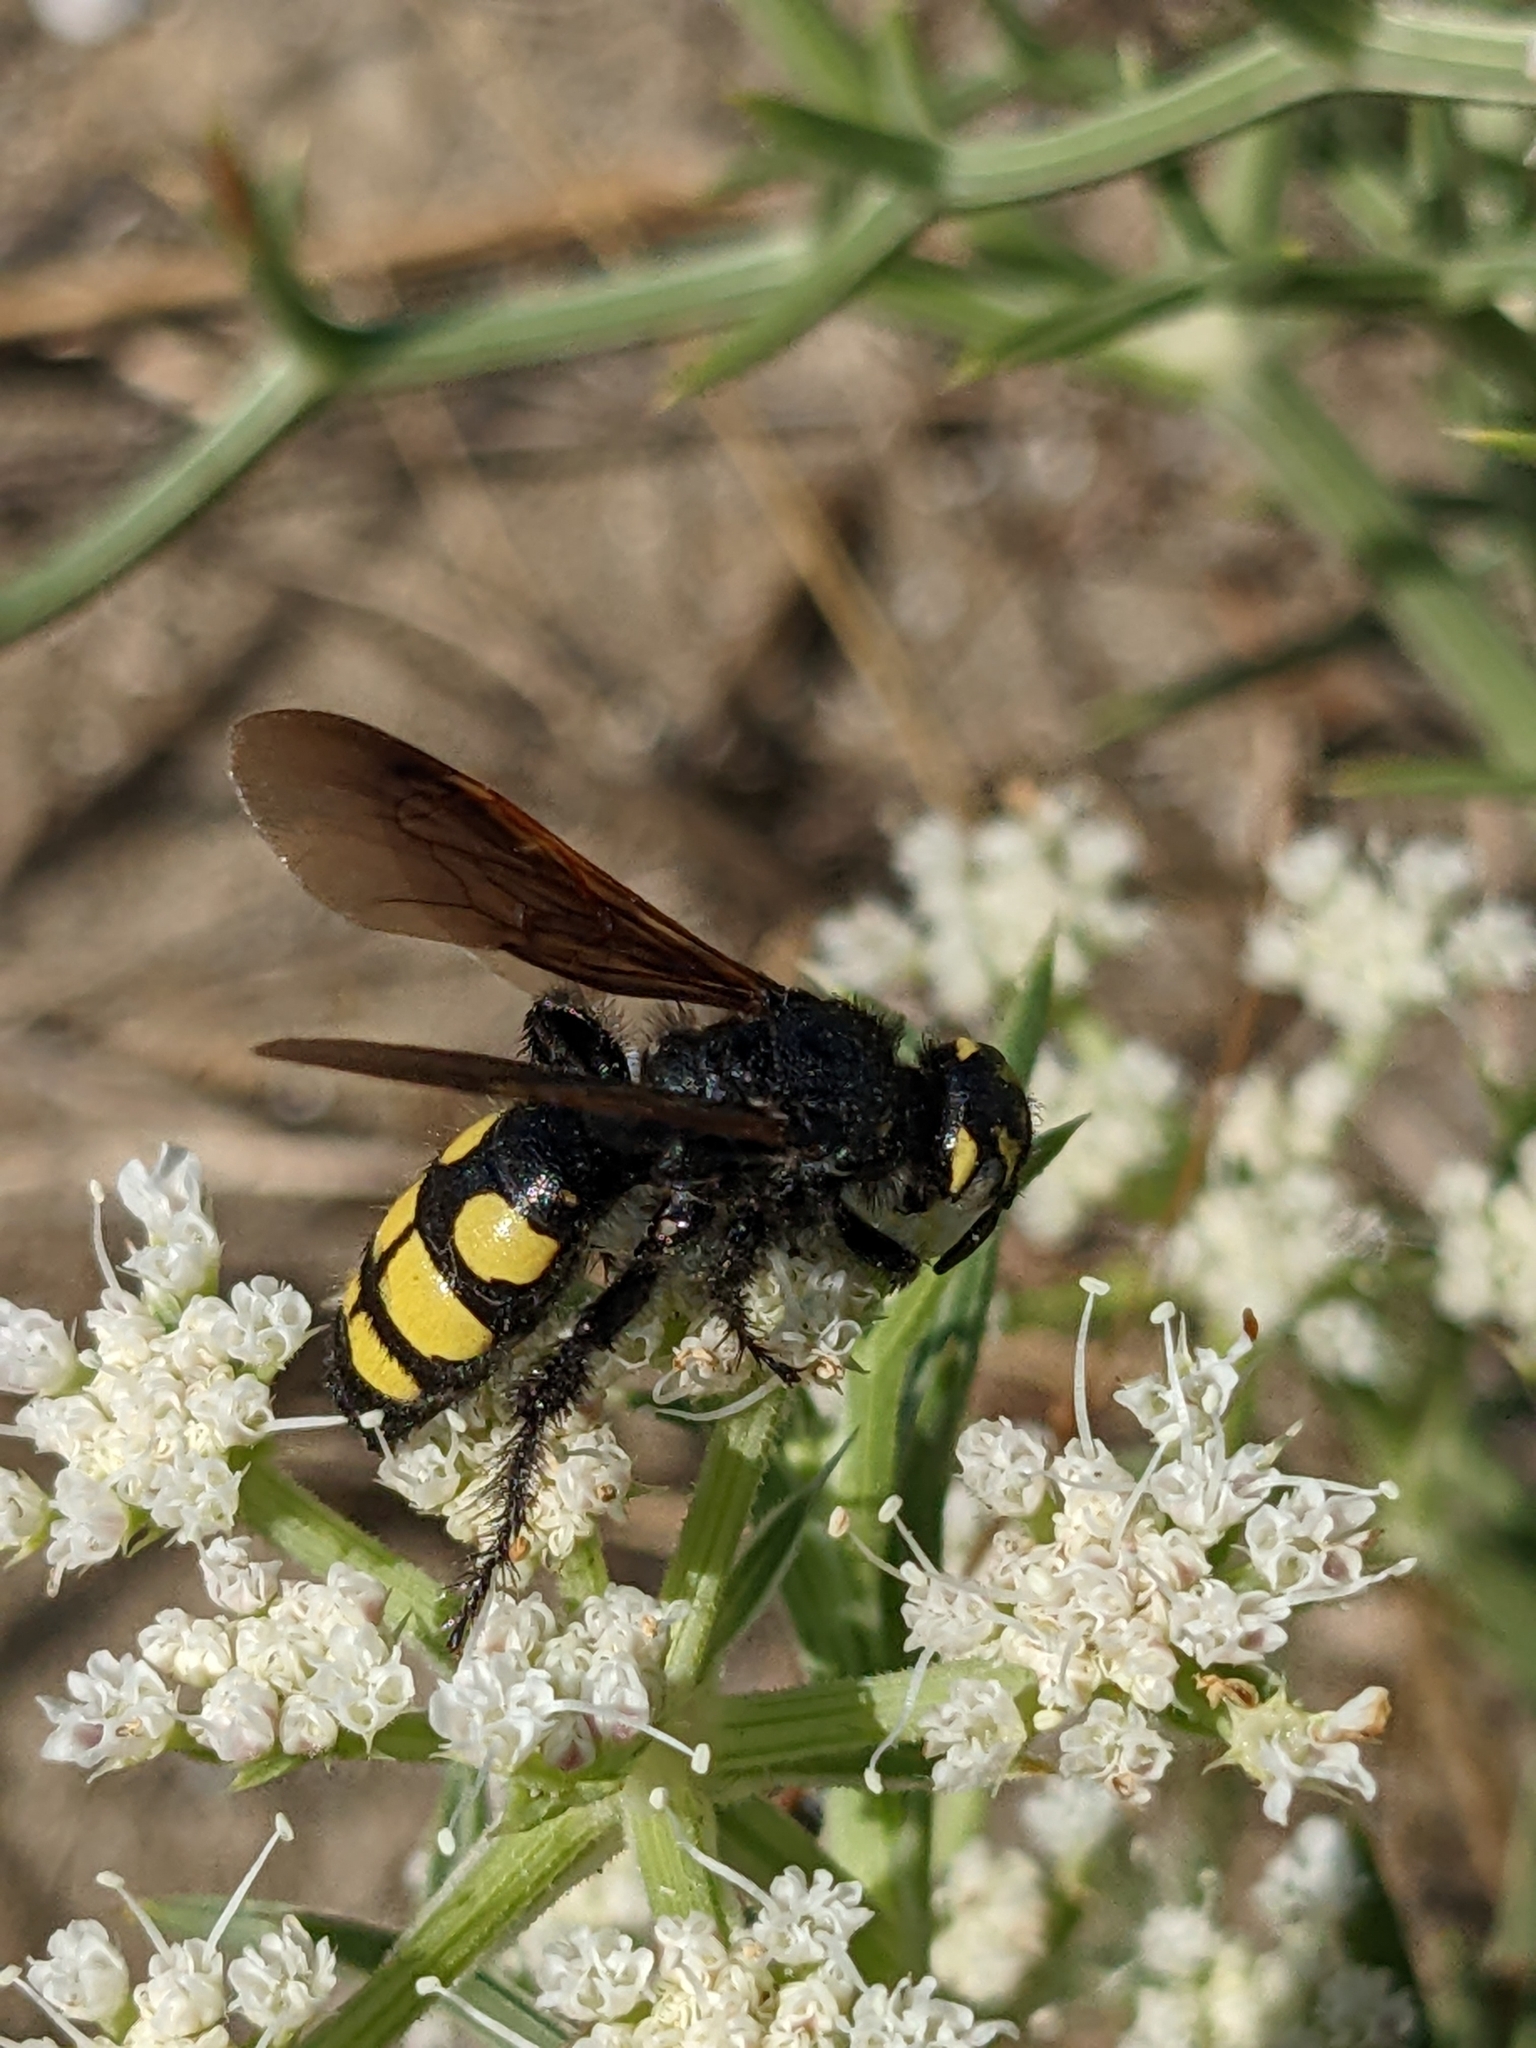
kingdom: Animalia
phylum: Arthropoda
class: Insecta
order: Hymenoptera
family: Vespidae
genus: Vespa
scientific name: Vespa sexmaculata
